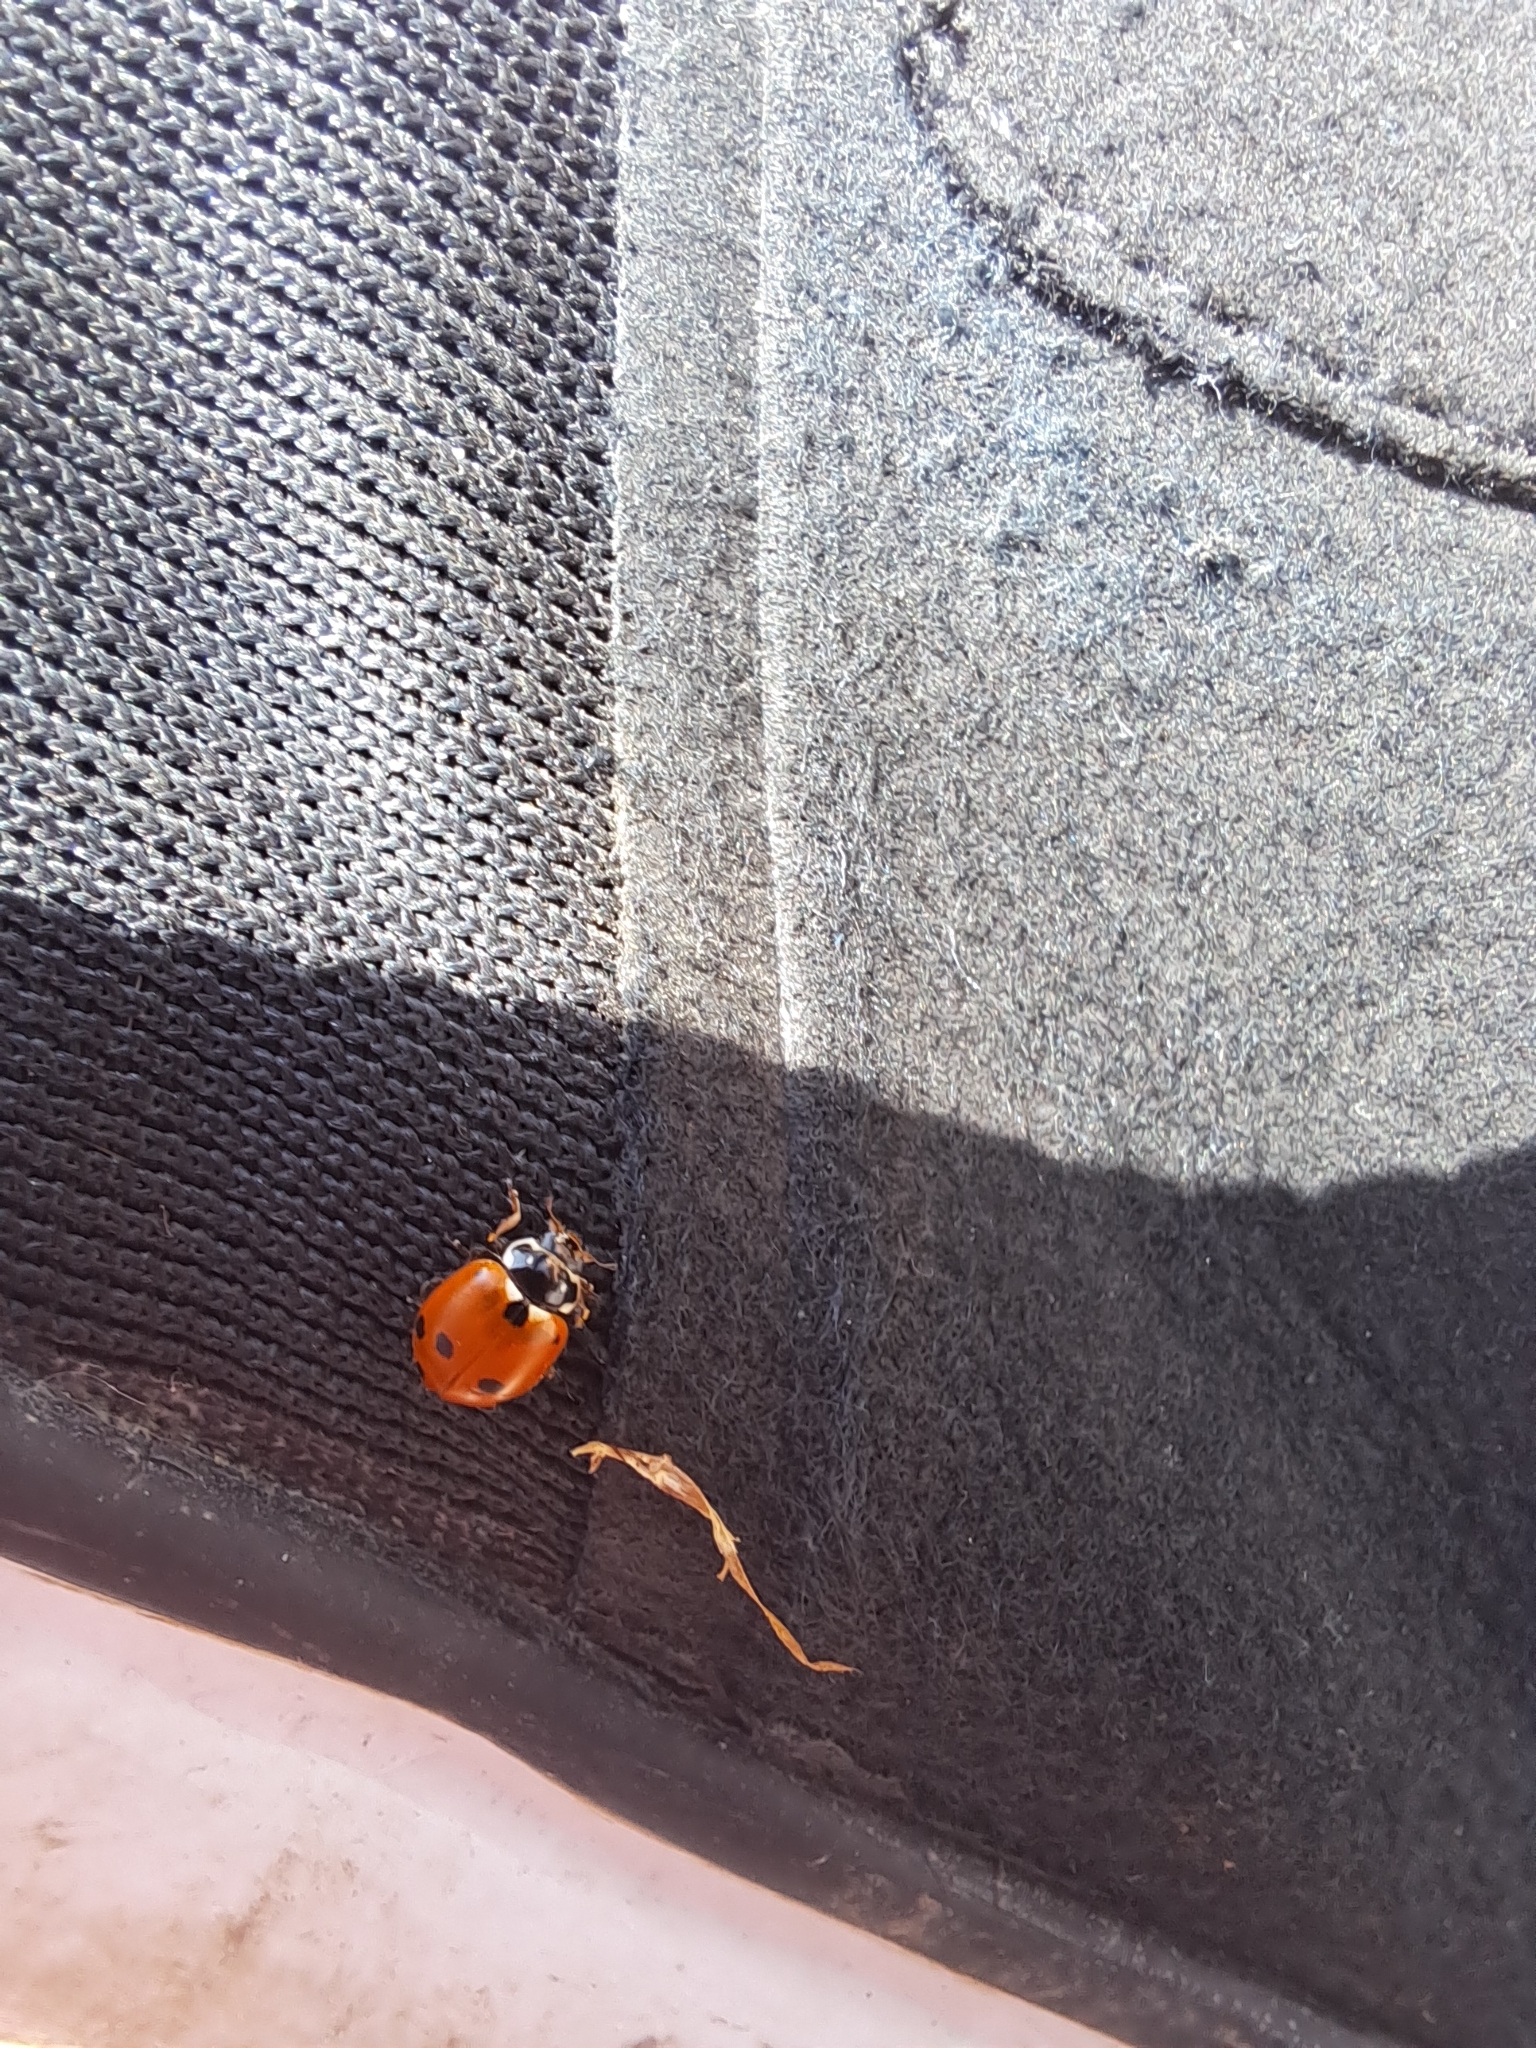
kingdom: Animalia
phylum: Arthropoda
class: Insecta
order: Coleoptera
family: Coccinellidae
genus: Hippodamia
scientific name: Hippodamia variegata
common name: Ladybird beetle
